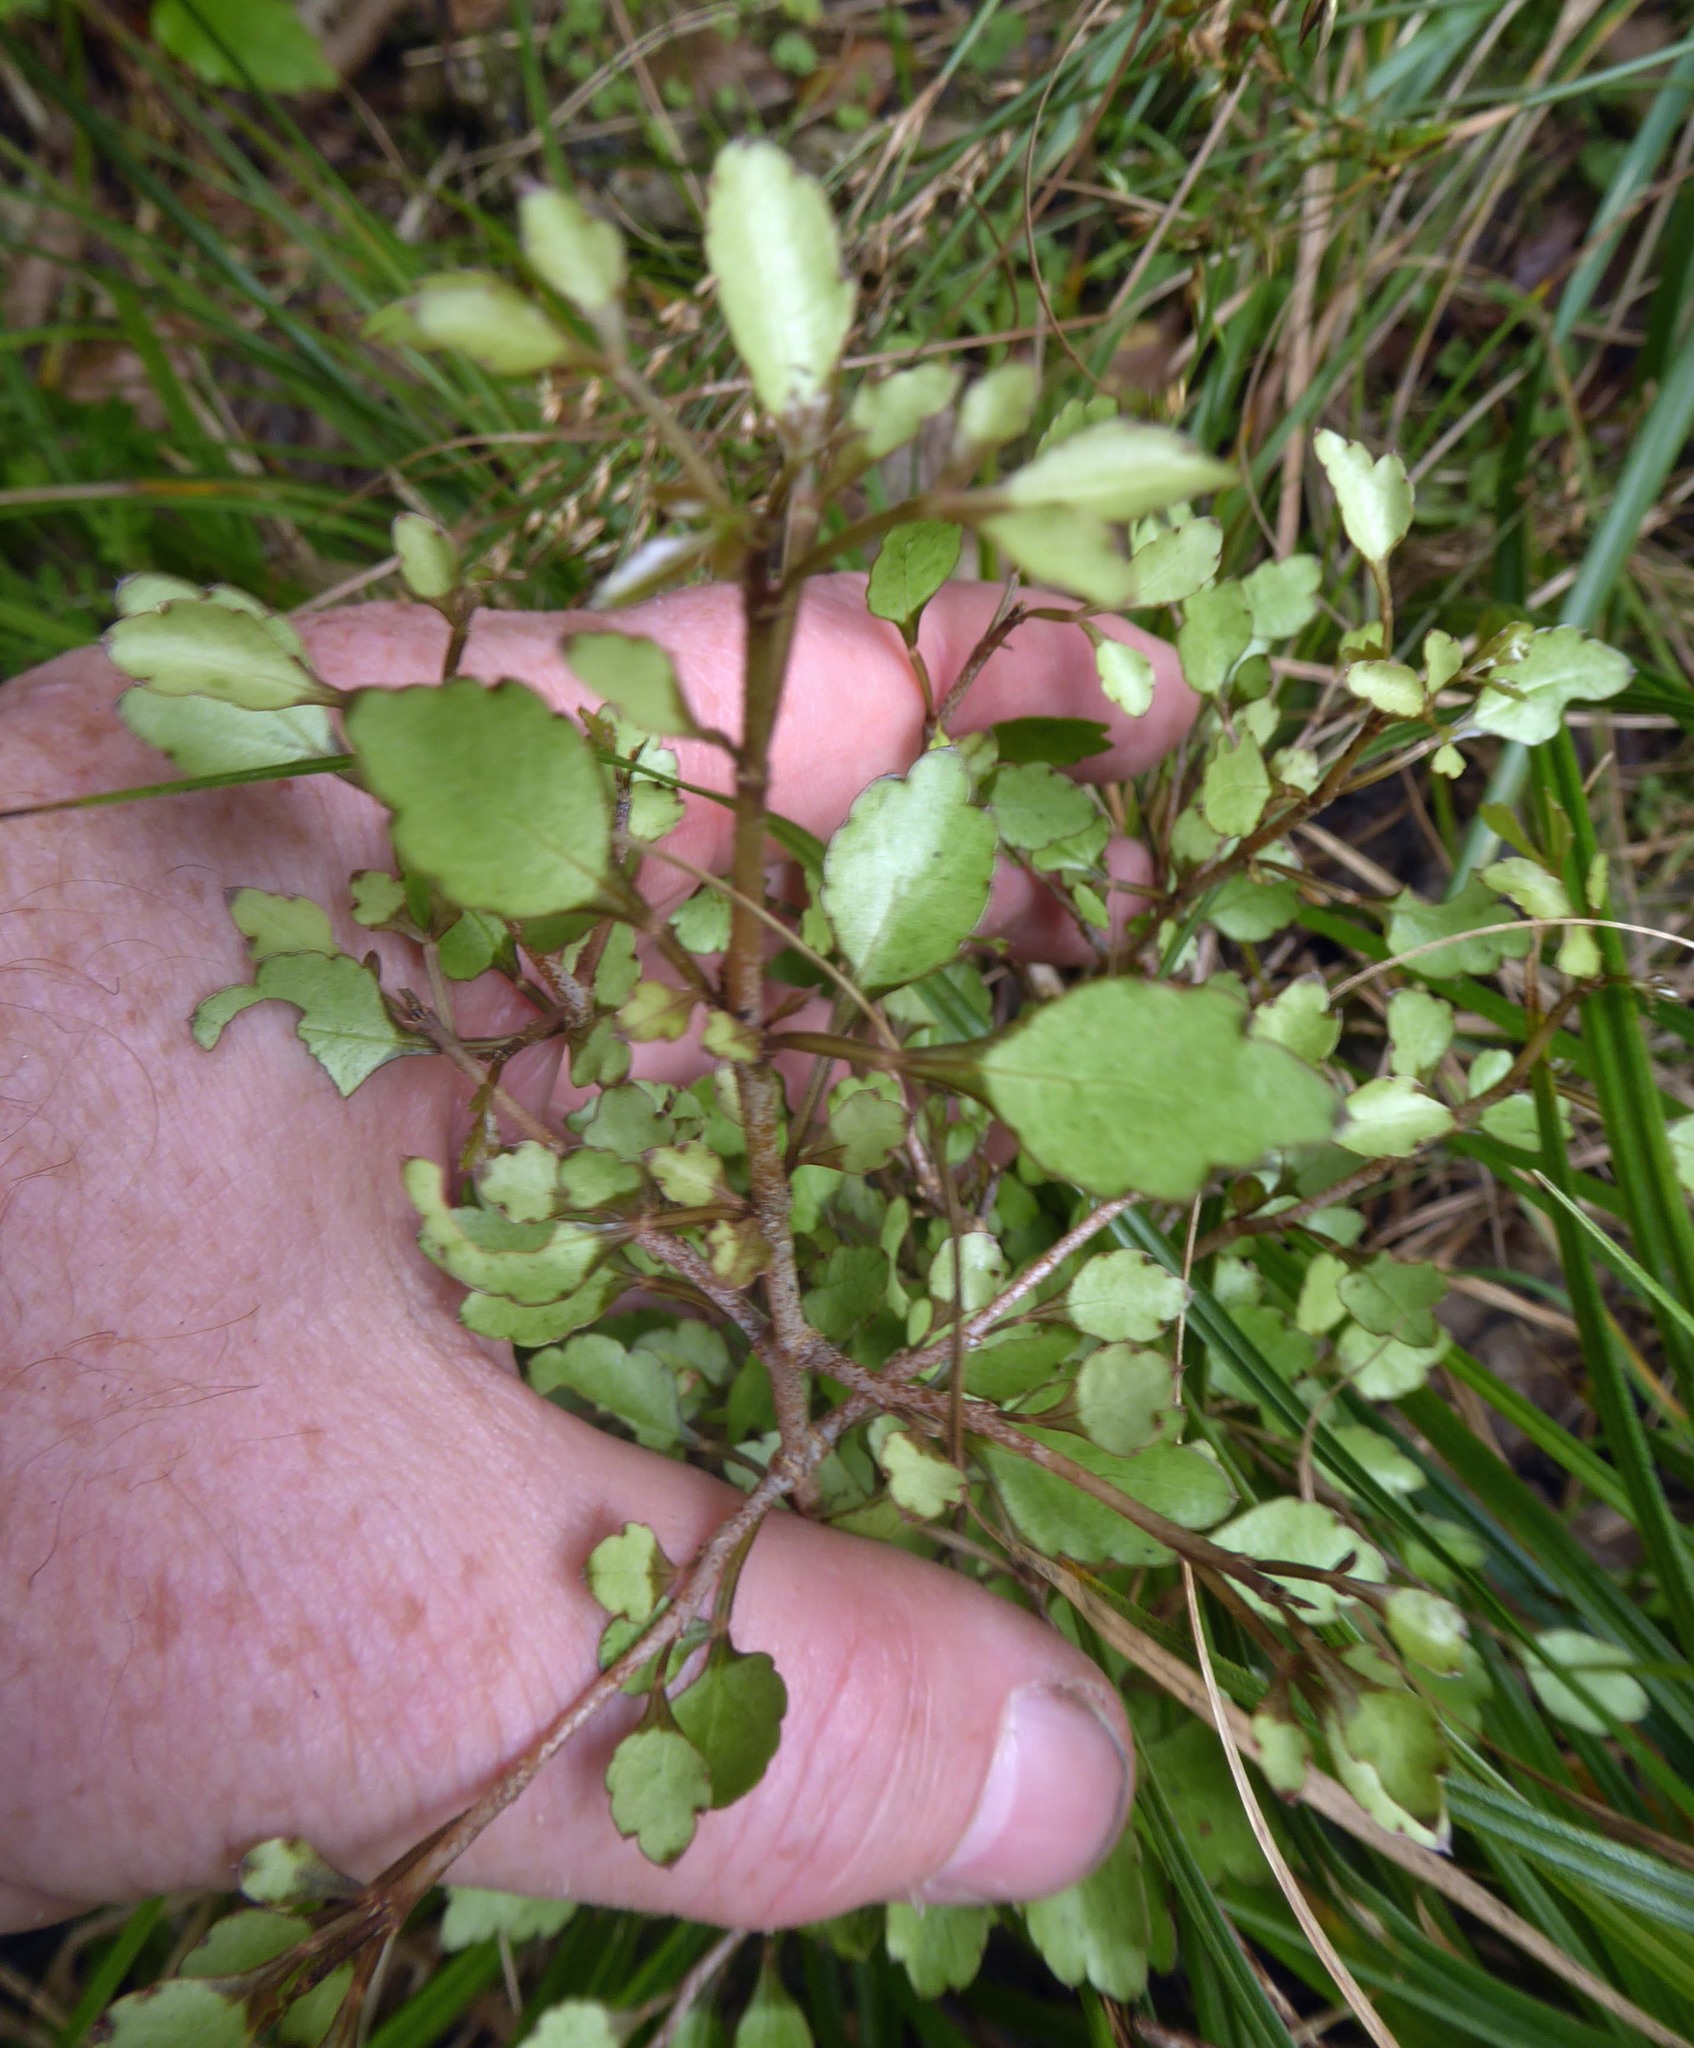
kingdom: Plantae
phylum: Tracheophyta
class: Magnoliopsida
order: Apiales
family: Araliaceae
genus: Raukaua
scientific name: Raukaua anomalus
